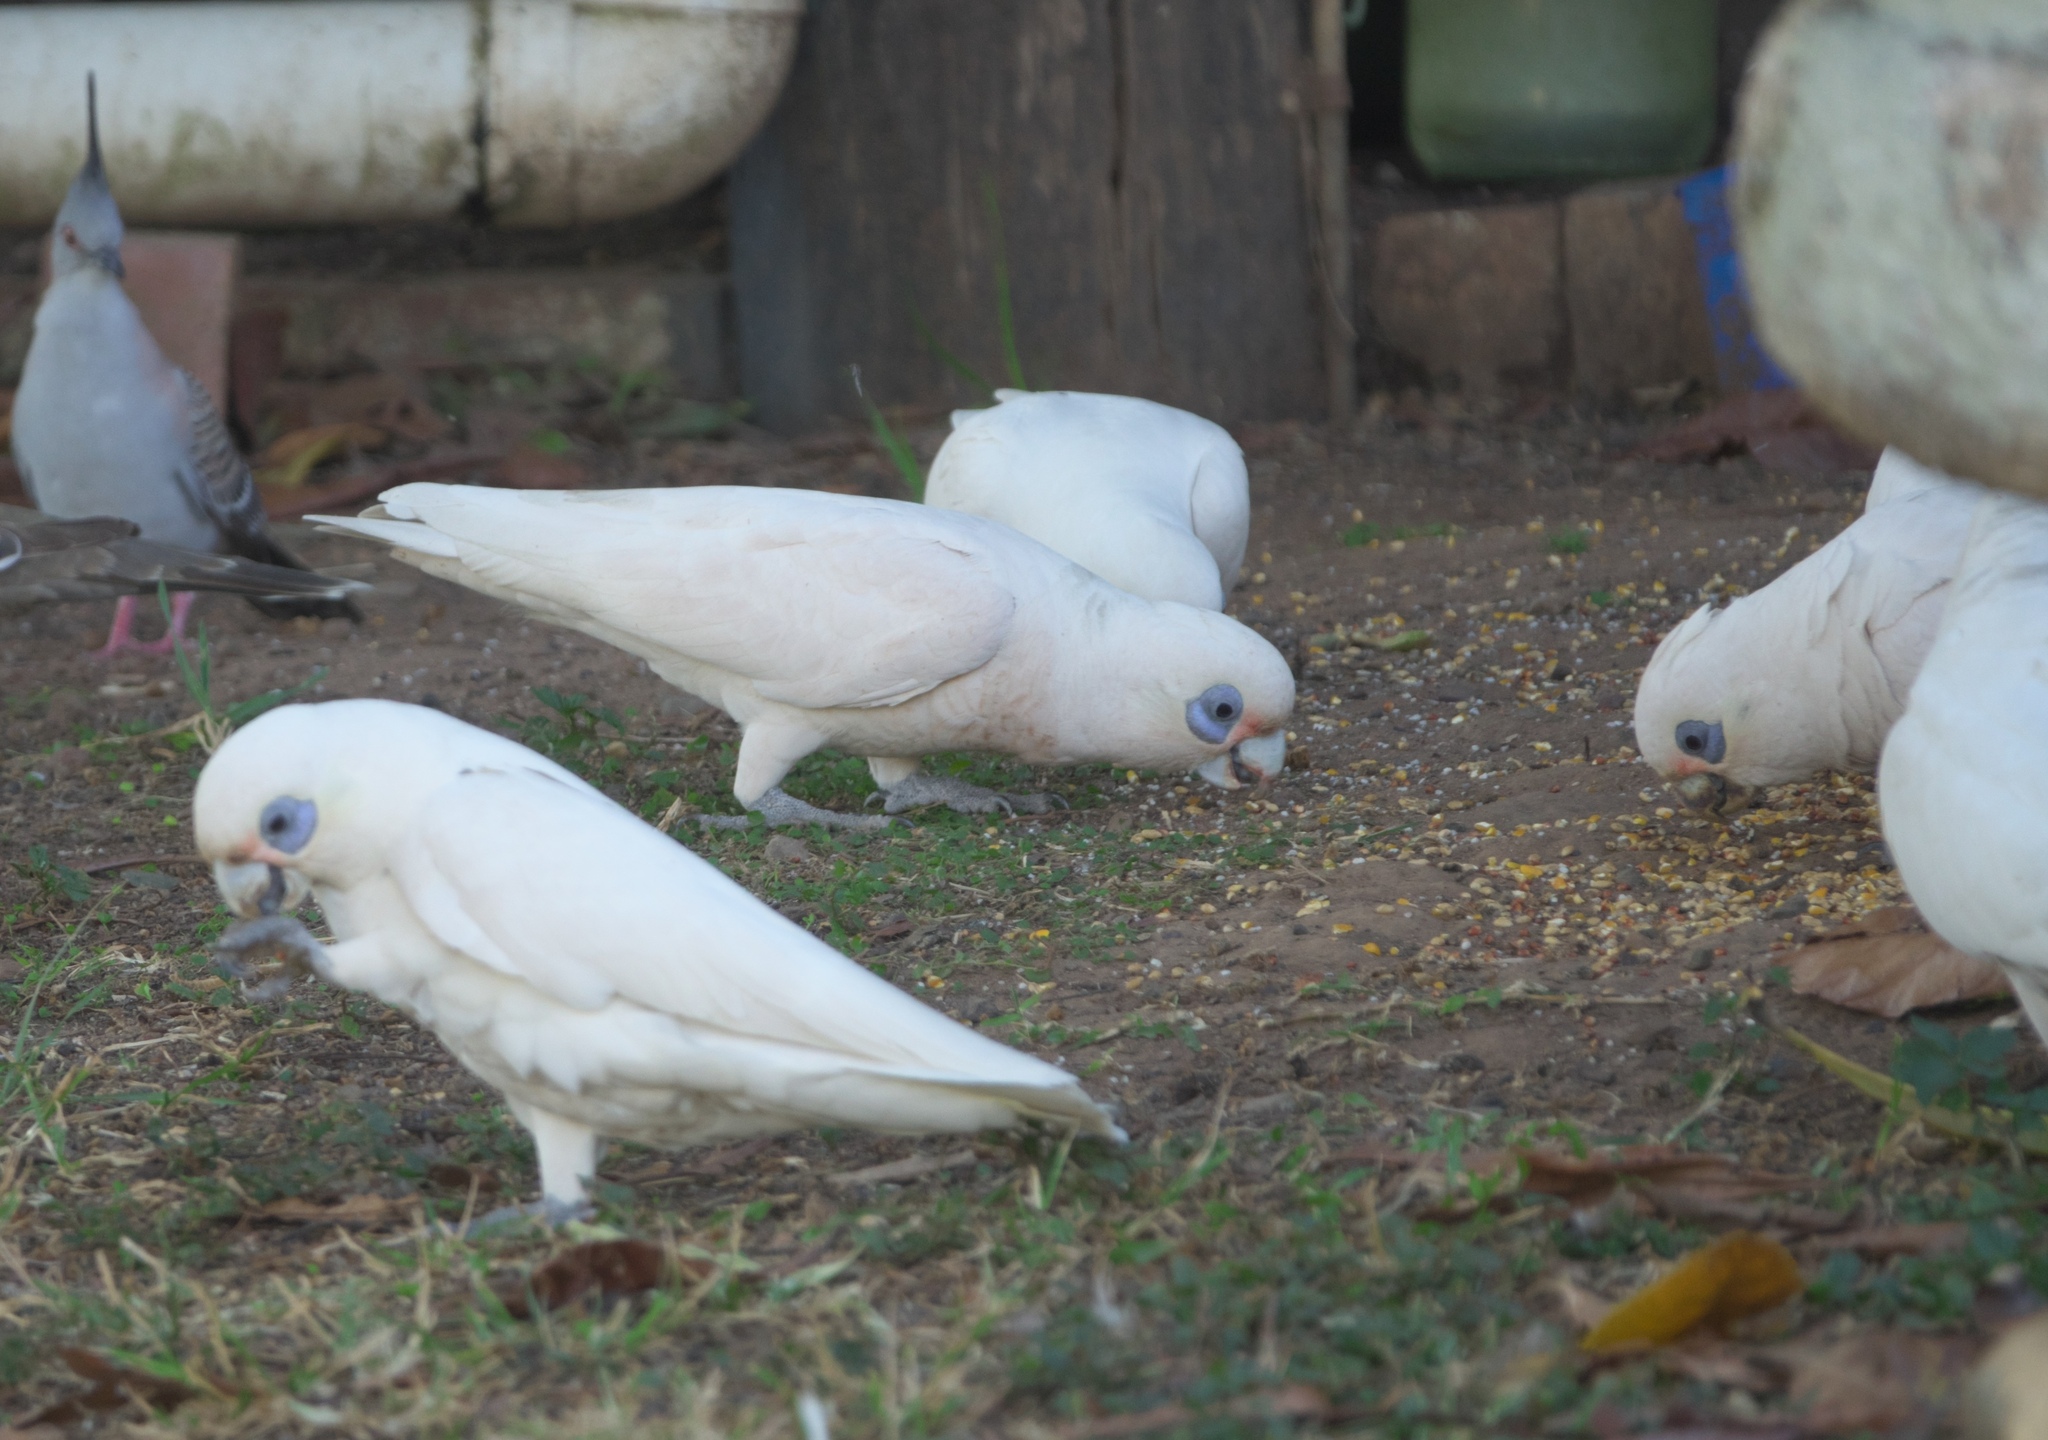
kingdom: Animalia
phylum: Chordata
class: Aves
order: Psittaciformes
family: Psittacidae
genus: Cacatua
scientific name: Cacatua sanguinea
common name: Little corella
